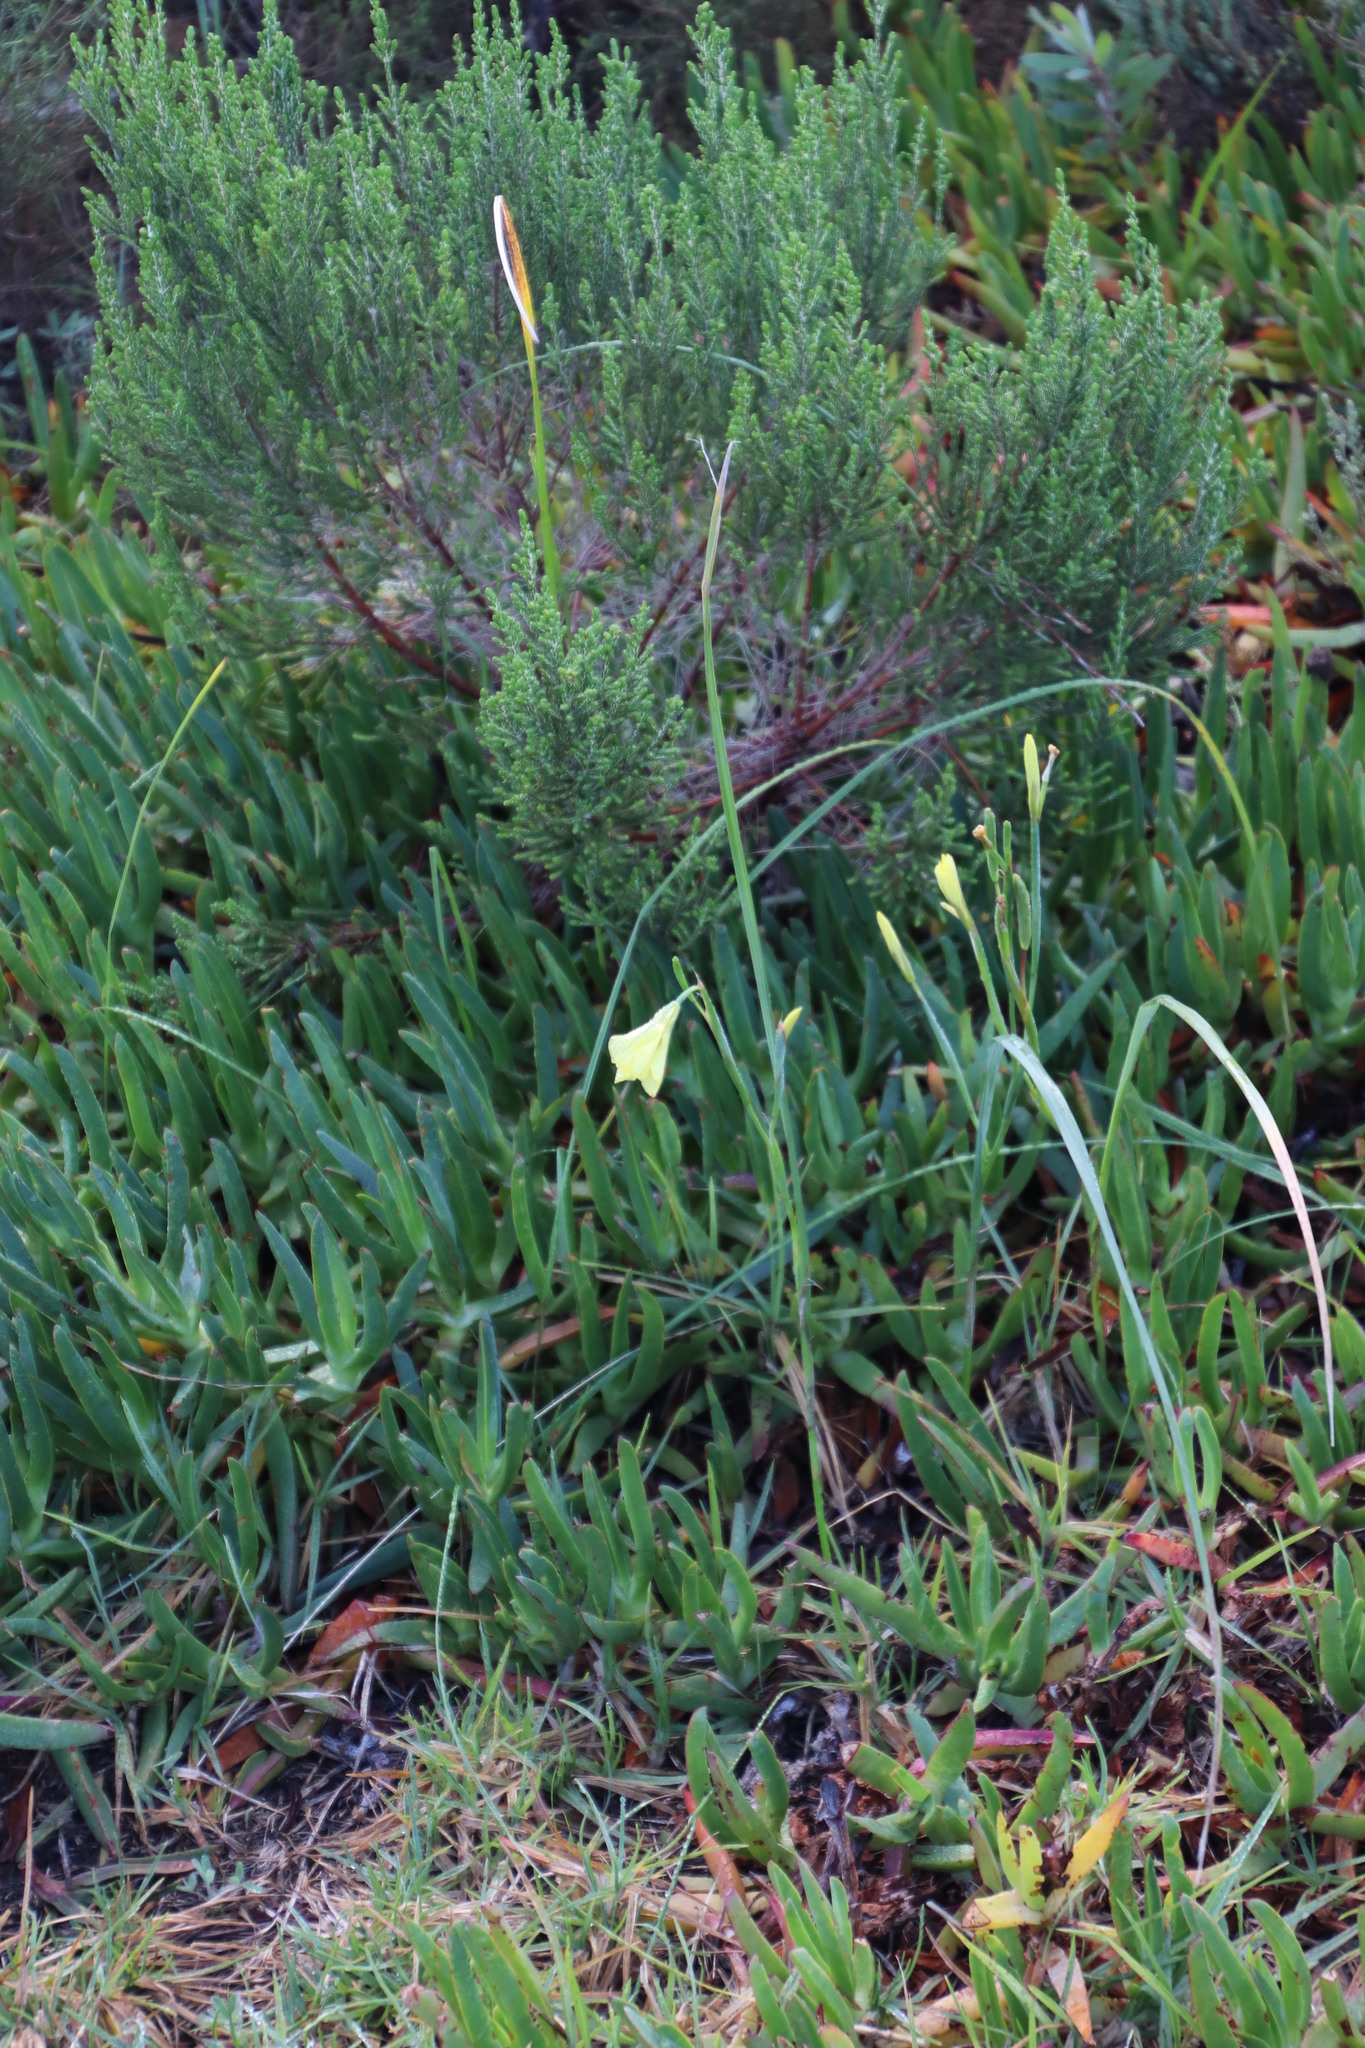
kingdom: Plantae
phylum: Tracheophyta
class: Liliopsida
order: Asparagales
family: Iridaceae
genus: Moraea
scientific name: Moraea collina
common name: Cape-tulip
